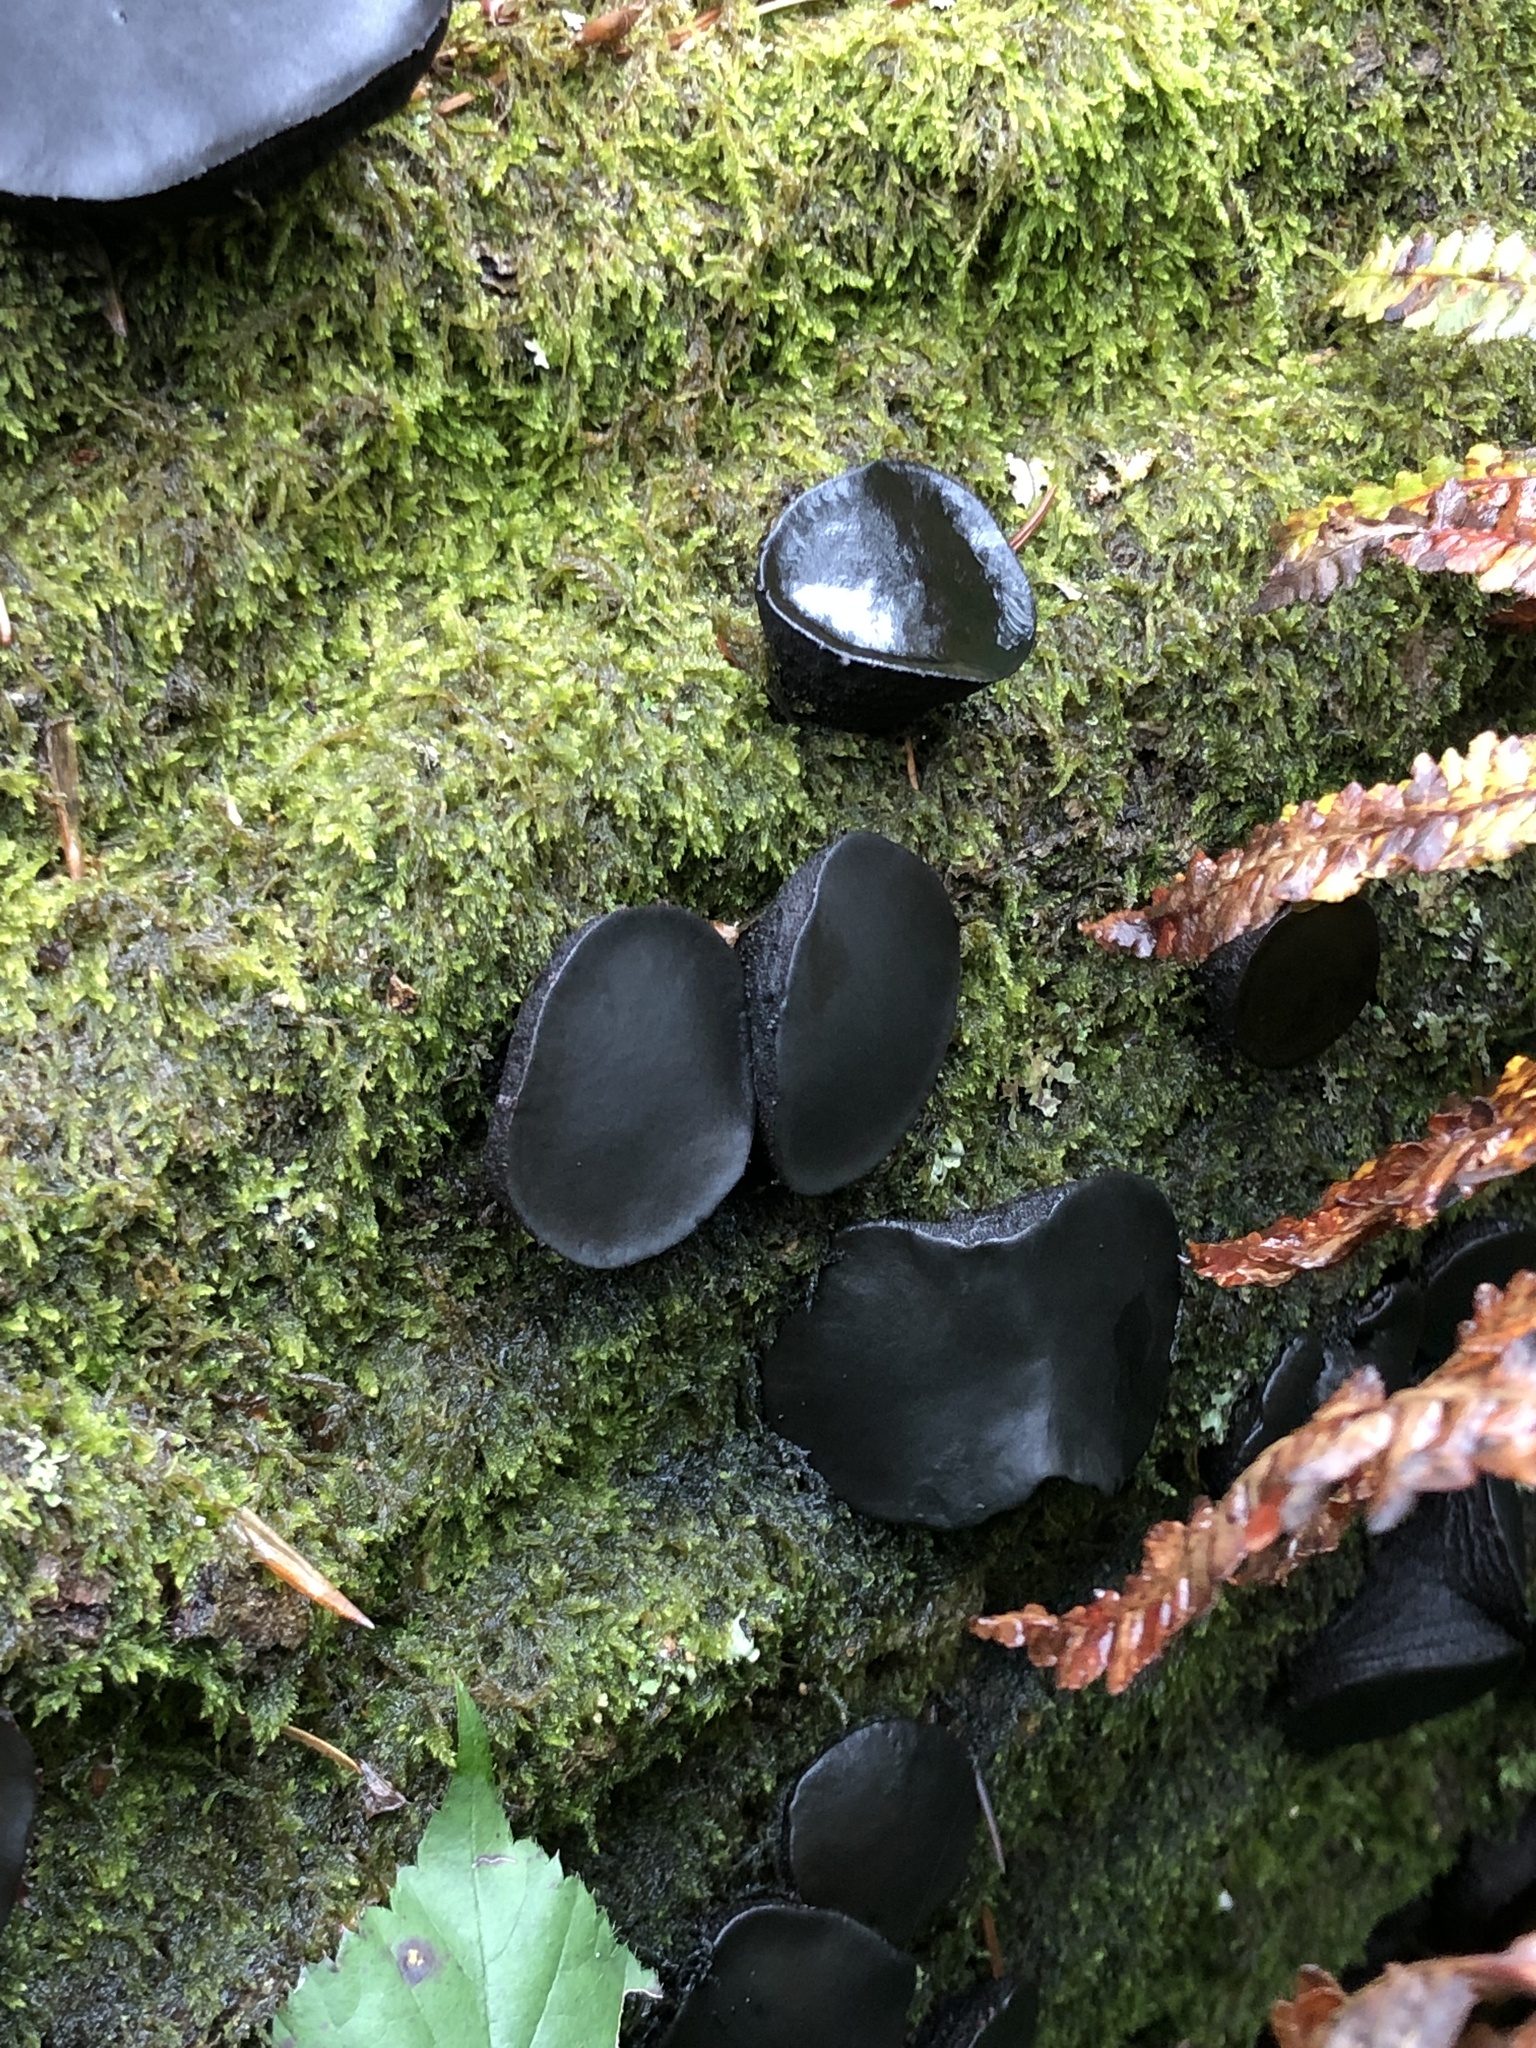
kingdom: Fungi
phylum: Ascomycota
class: Leotiomycetes
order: Phacidiales
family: Phacidiaceae
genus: Bulgaria
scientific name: Bulgaria inquinans
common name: Black bulgar
